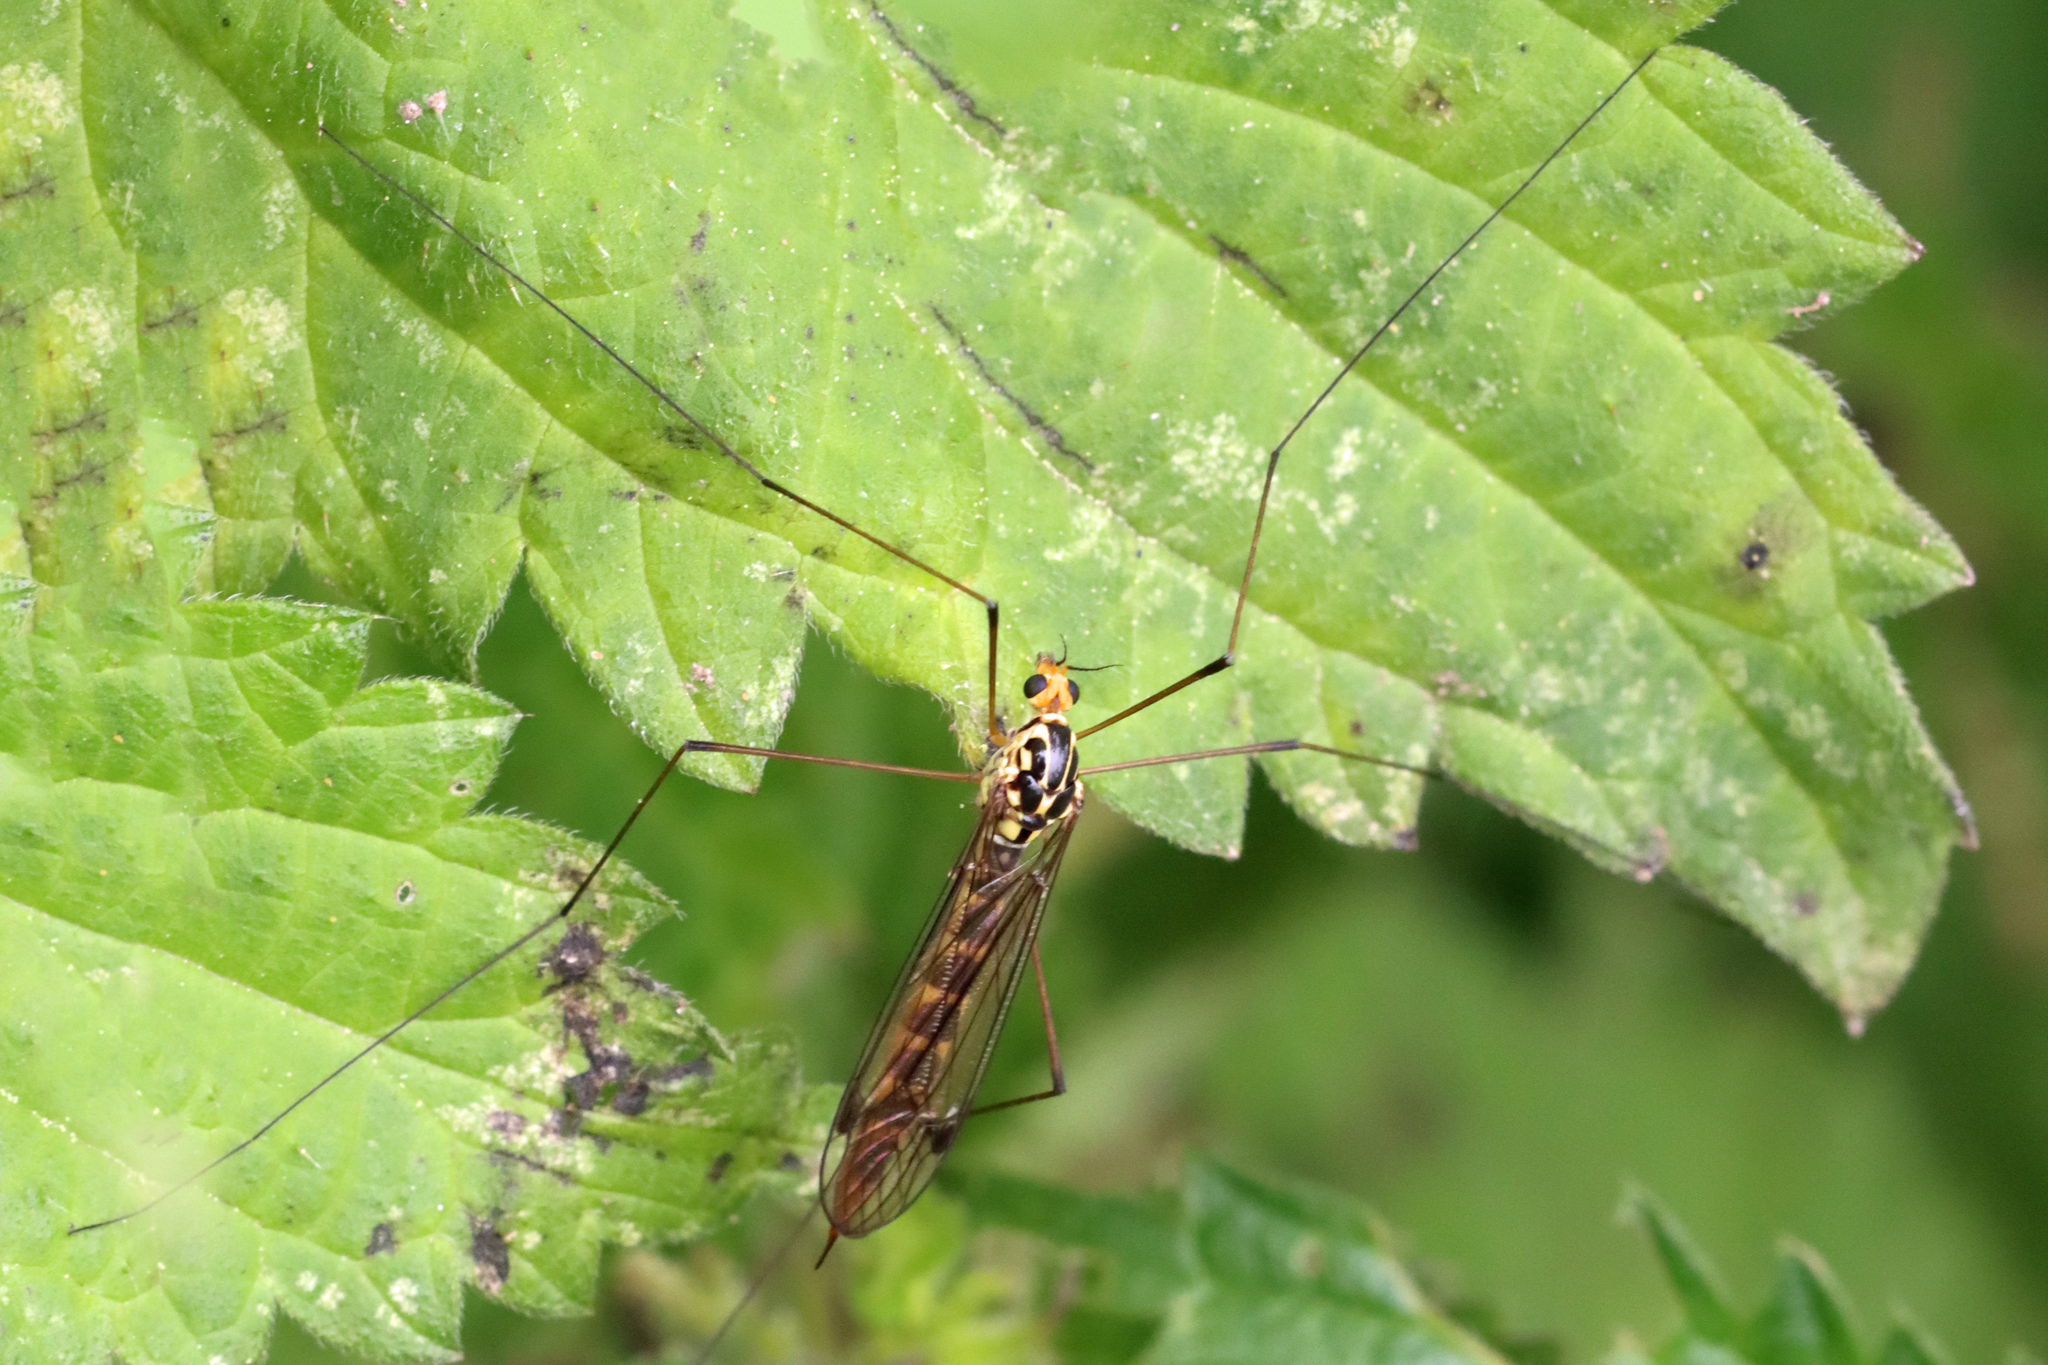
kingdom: Animalia
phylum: Arthropoda
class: Insecta
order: Diptera
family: Tipulidae
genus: Nephrotoma
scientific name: Nephrotoma flavipalpis
